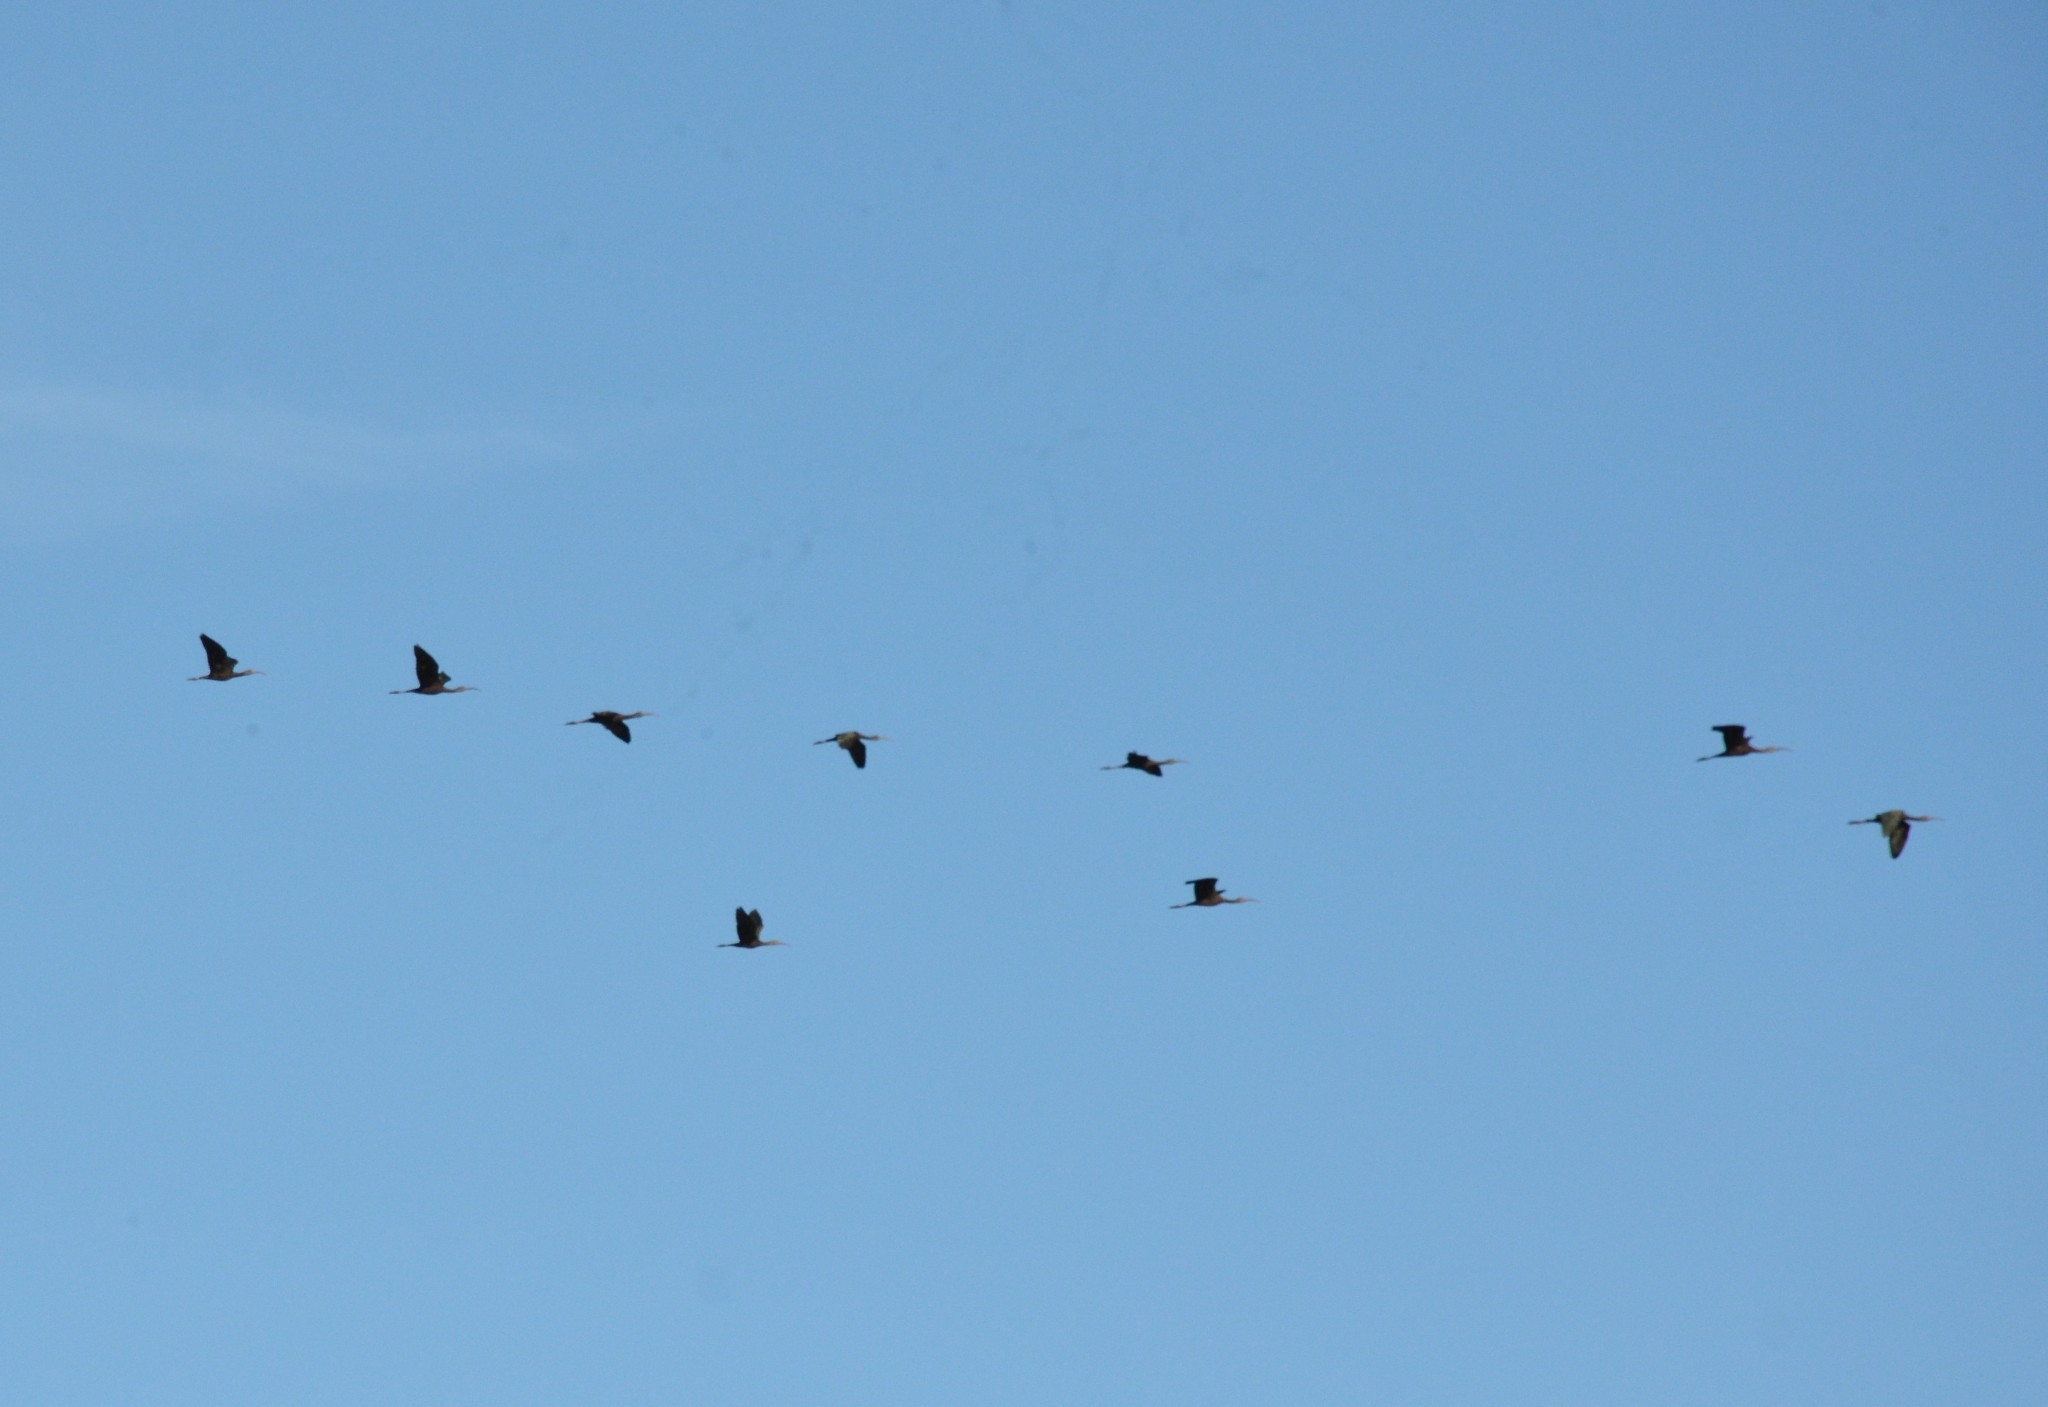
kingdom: Animalia
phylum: Chordata
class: Aves
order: Pelecaniformes
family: Threskiornithidae
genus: Plegadis
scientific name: Plegadis falcinellus
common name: Glossy ibis
